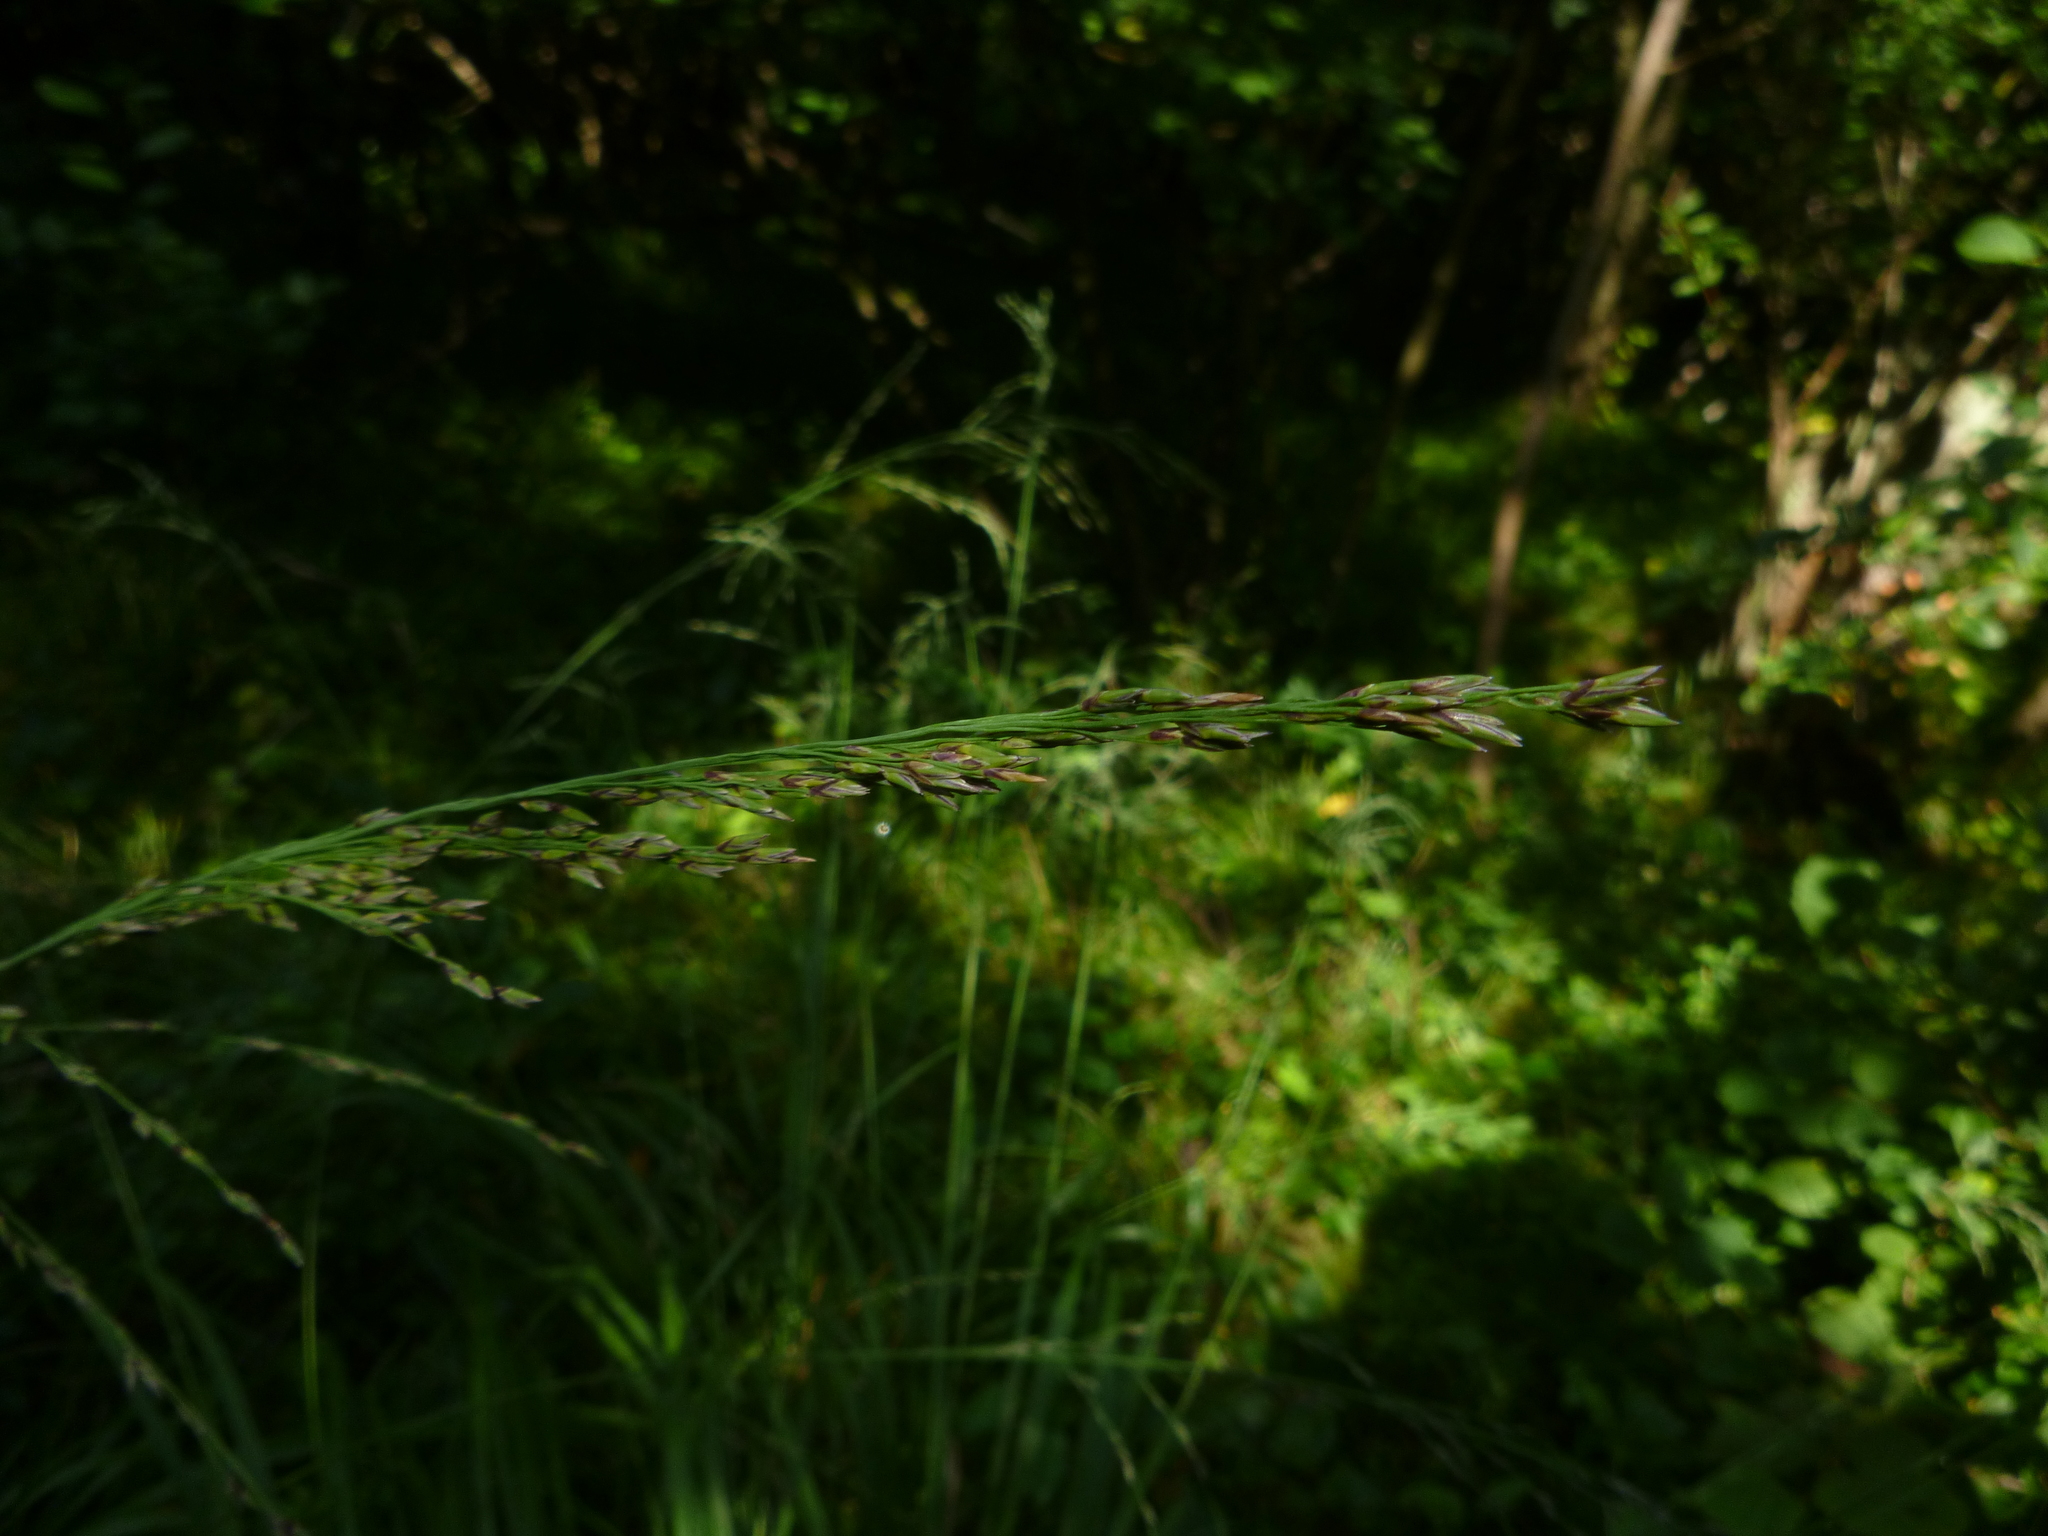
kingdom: Plantae
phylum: Tracheophyta
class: Liliopsida
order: Poales
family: Poaceae
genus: Molinia
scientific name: Molinia caerulea
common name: Purple moor-grass
